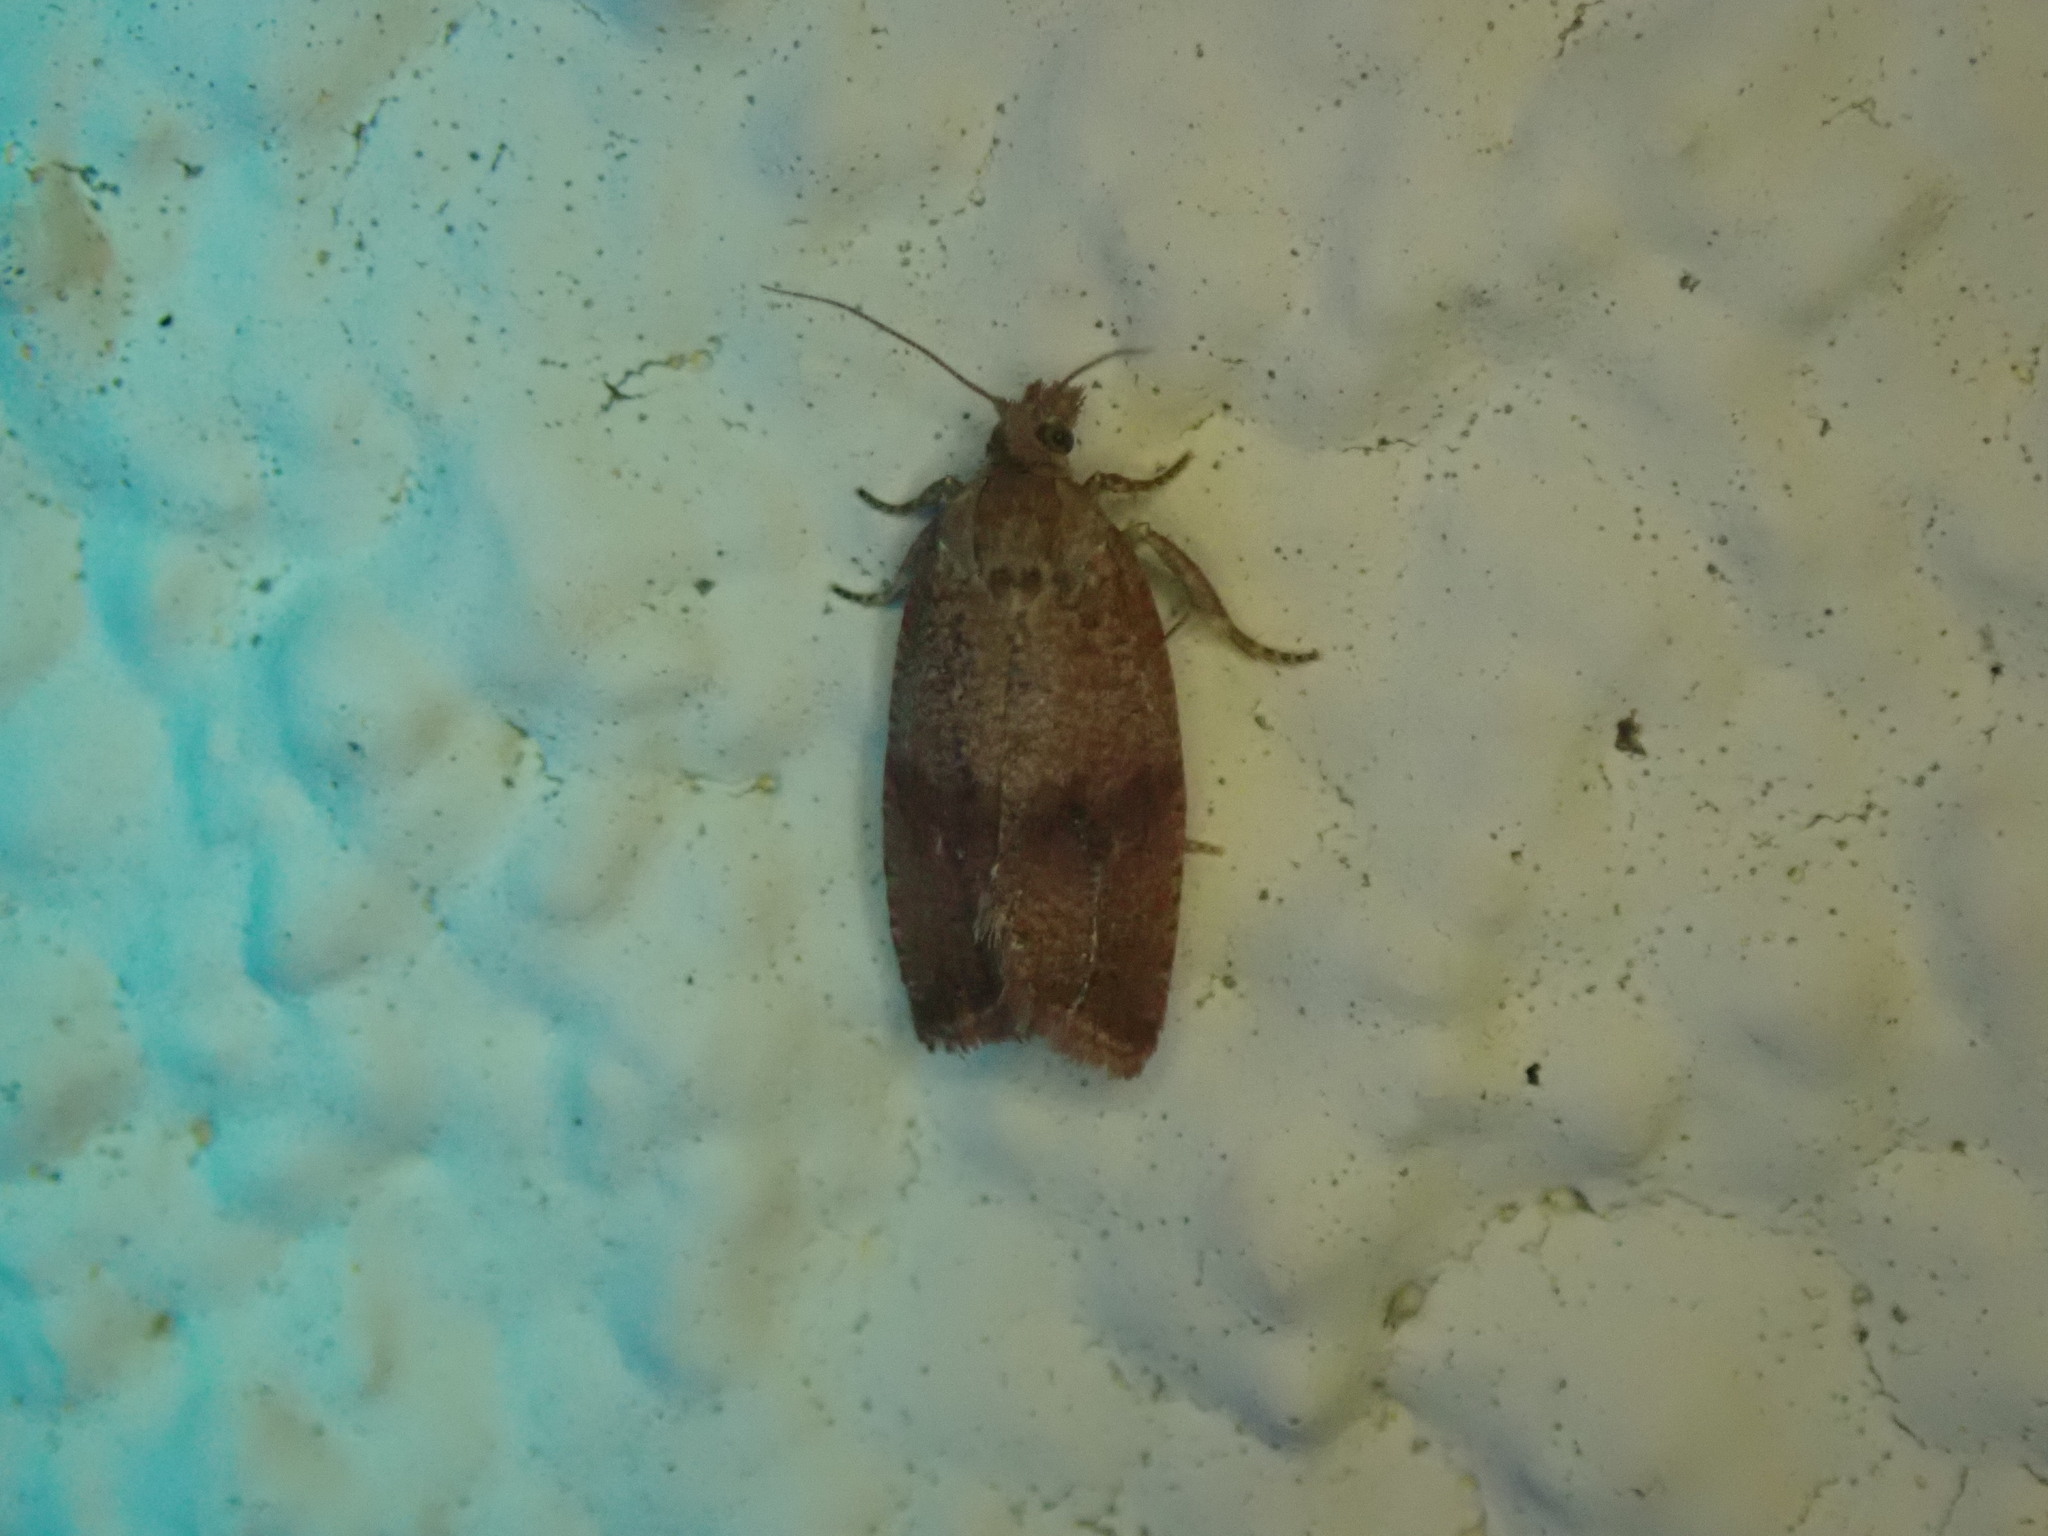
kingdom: Animalia
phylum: Arthropoda
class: Insecta
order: Lepidoptera
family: Tortricidae
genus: Celypha
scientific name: Celypha striana
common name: Barred marble
